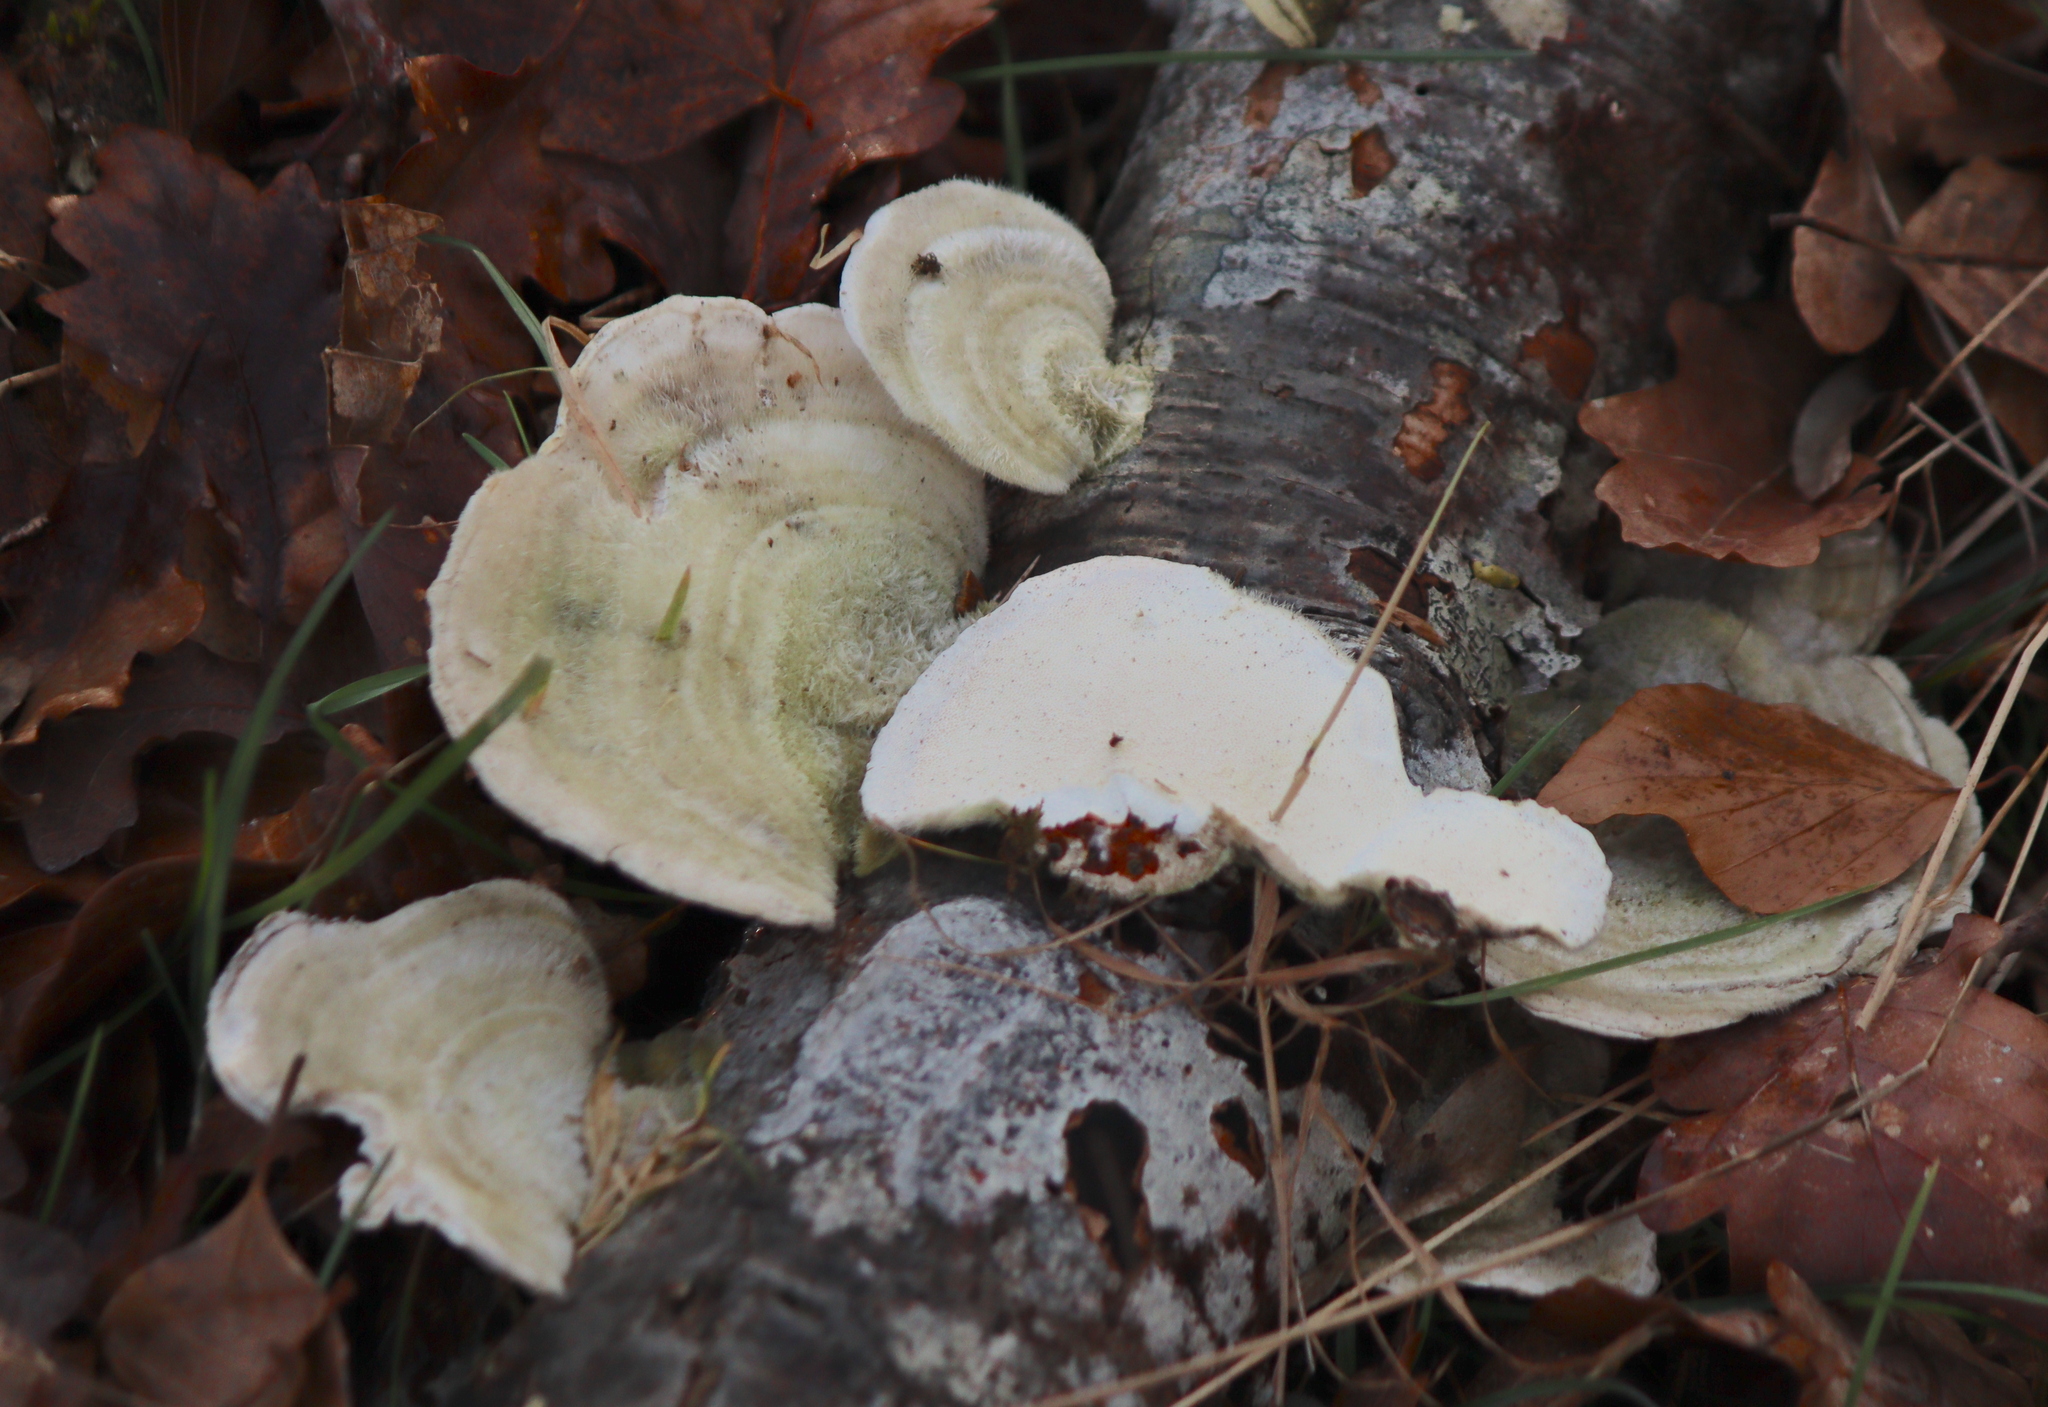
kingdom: Fungi
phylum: Basidiomycota
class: Agaricomycetes
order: Polyporales
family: Polyporaceae
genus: Trametes
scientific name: Trametes hirsuta
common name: Hairy bracket
